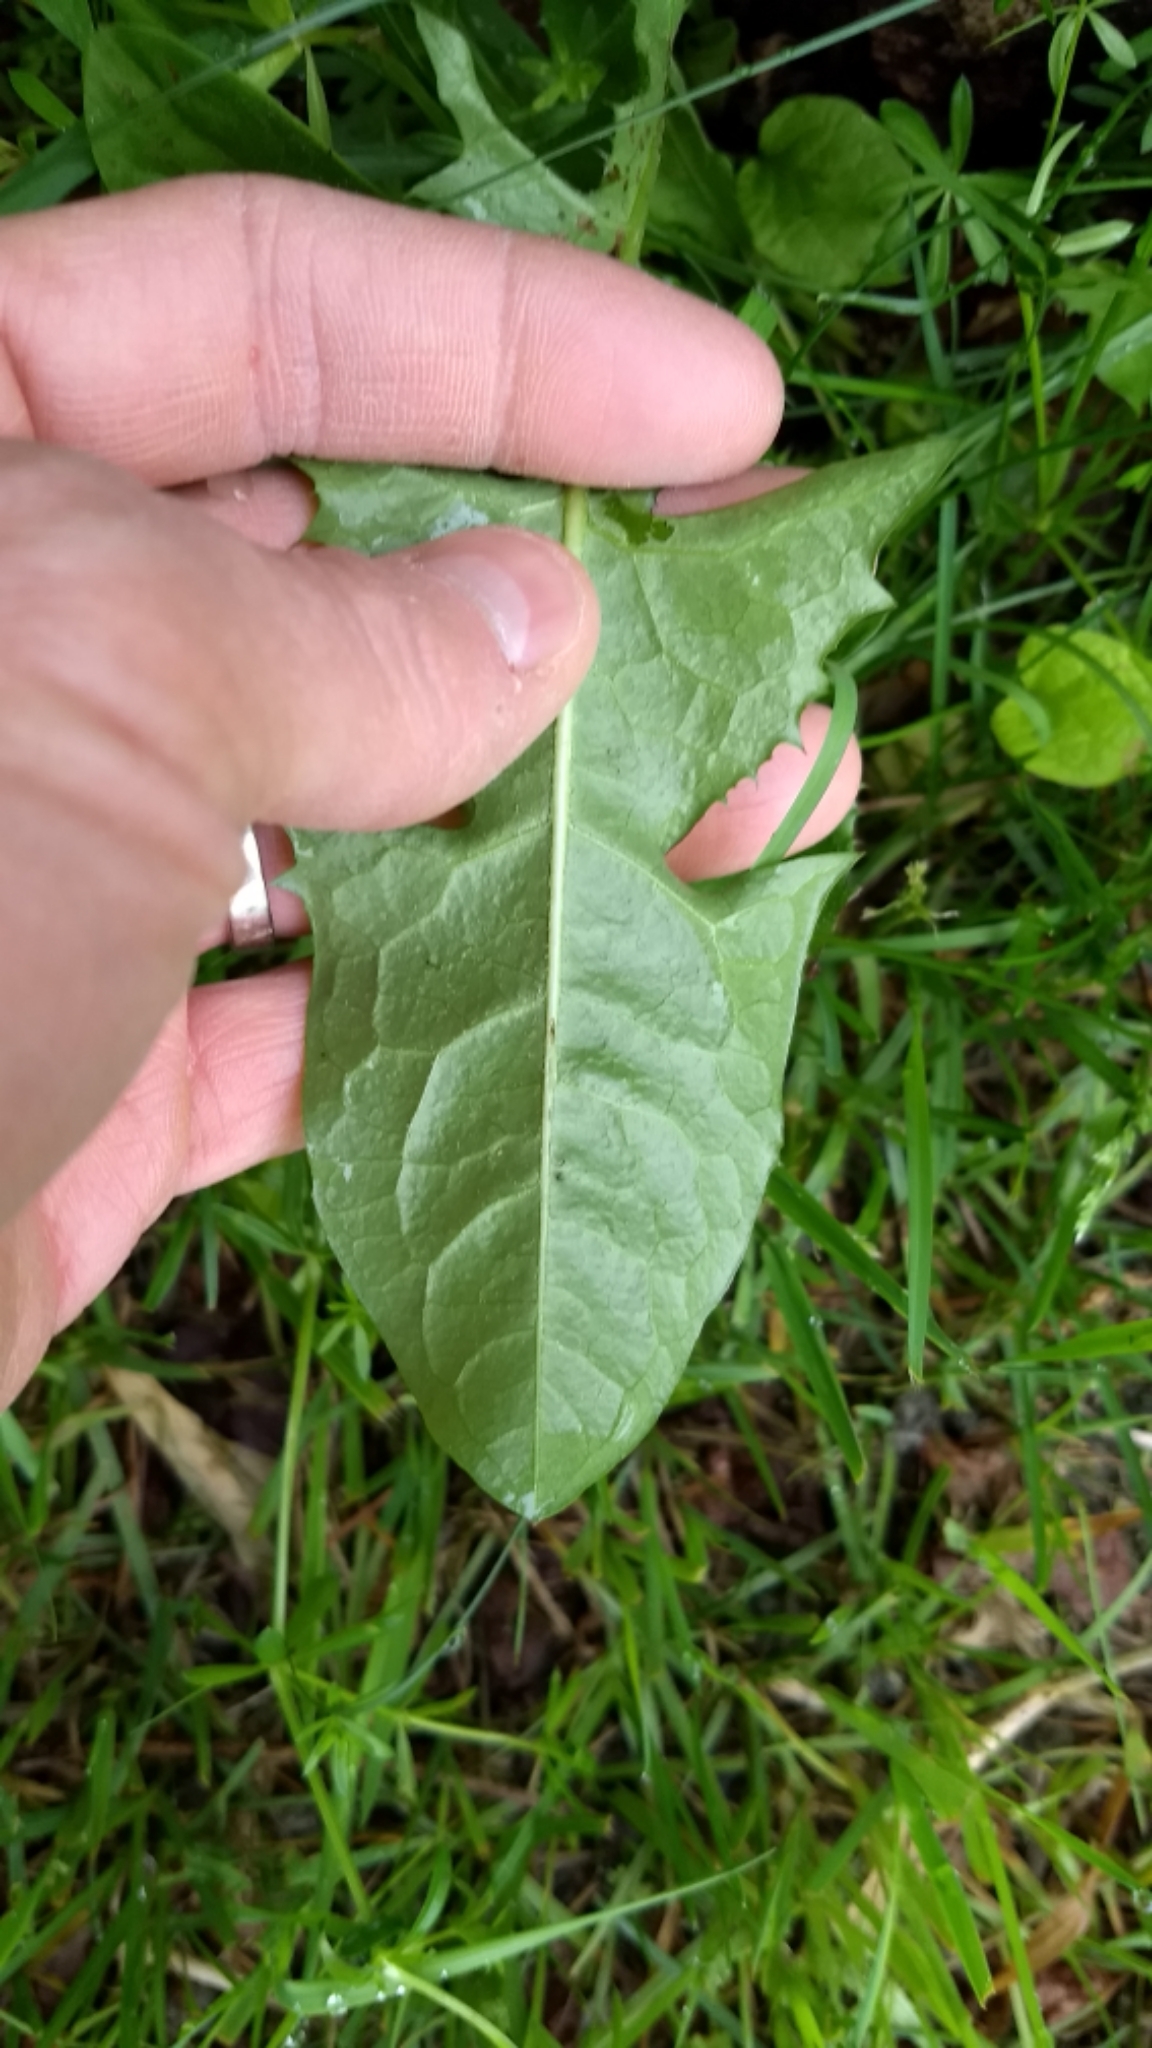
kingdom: Plantae
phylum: Tracheophyta
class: Magnoliopsida
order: Asterales
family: Asteraceae
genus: Taraxacum
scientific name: Taraxacum officinale
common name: Common dandelion
